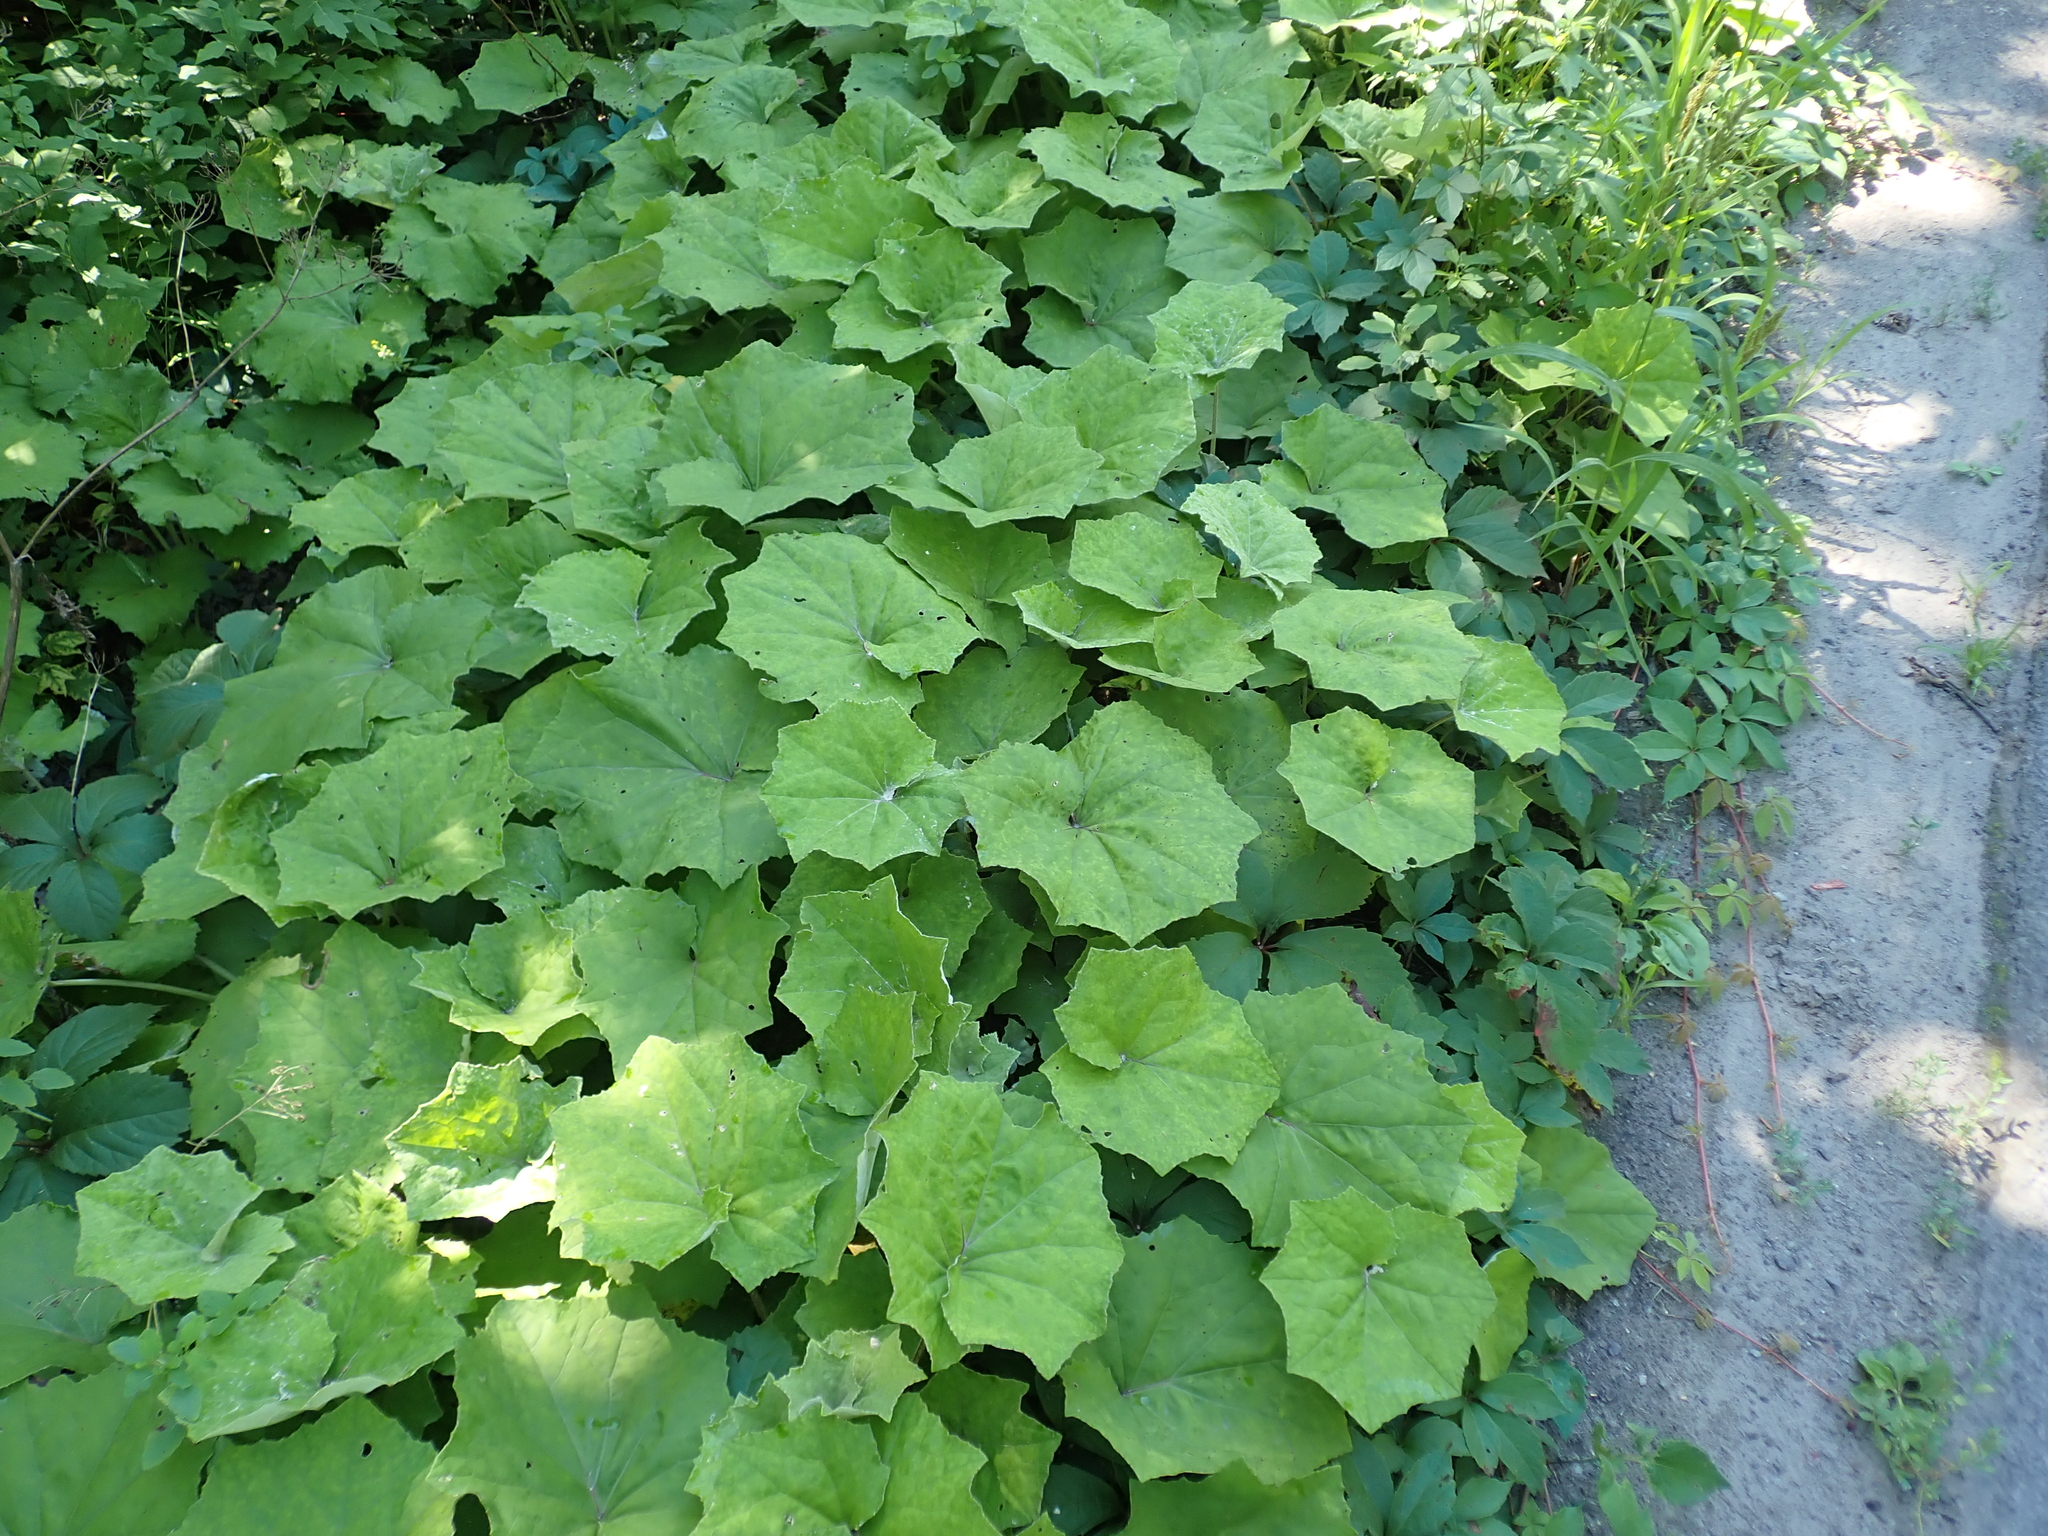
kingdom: Plantae
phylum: Tracheophyta
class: Magnoliopsida
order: Asterales
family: Asteraceae
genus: Tussilago
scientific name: Tussilago farfara
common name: Coltsfoot
